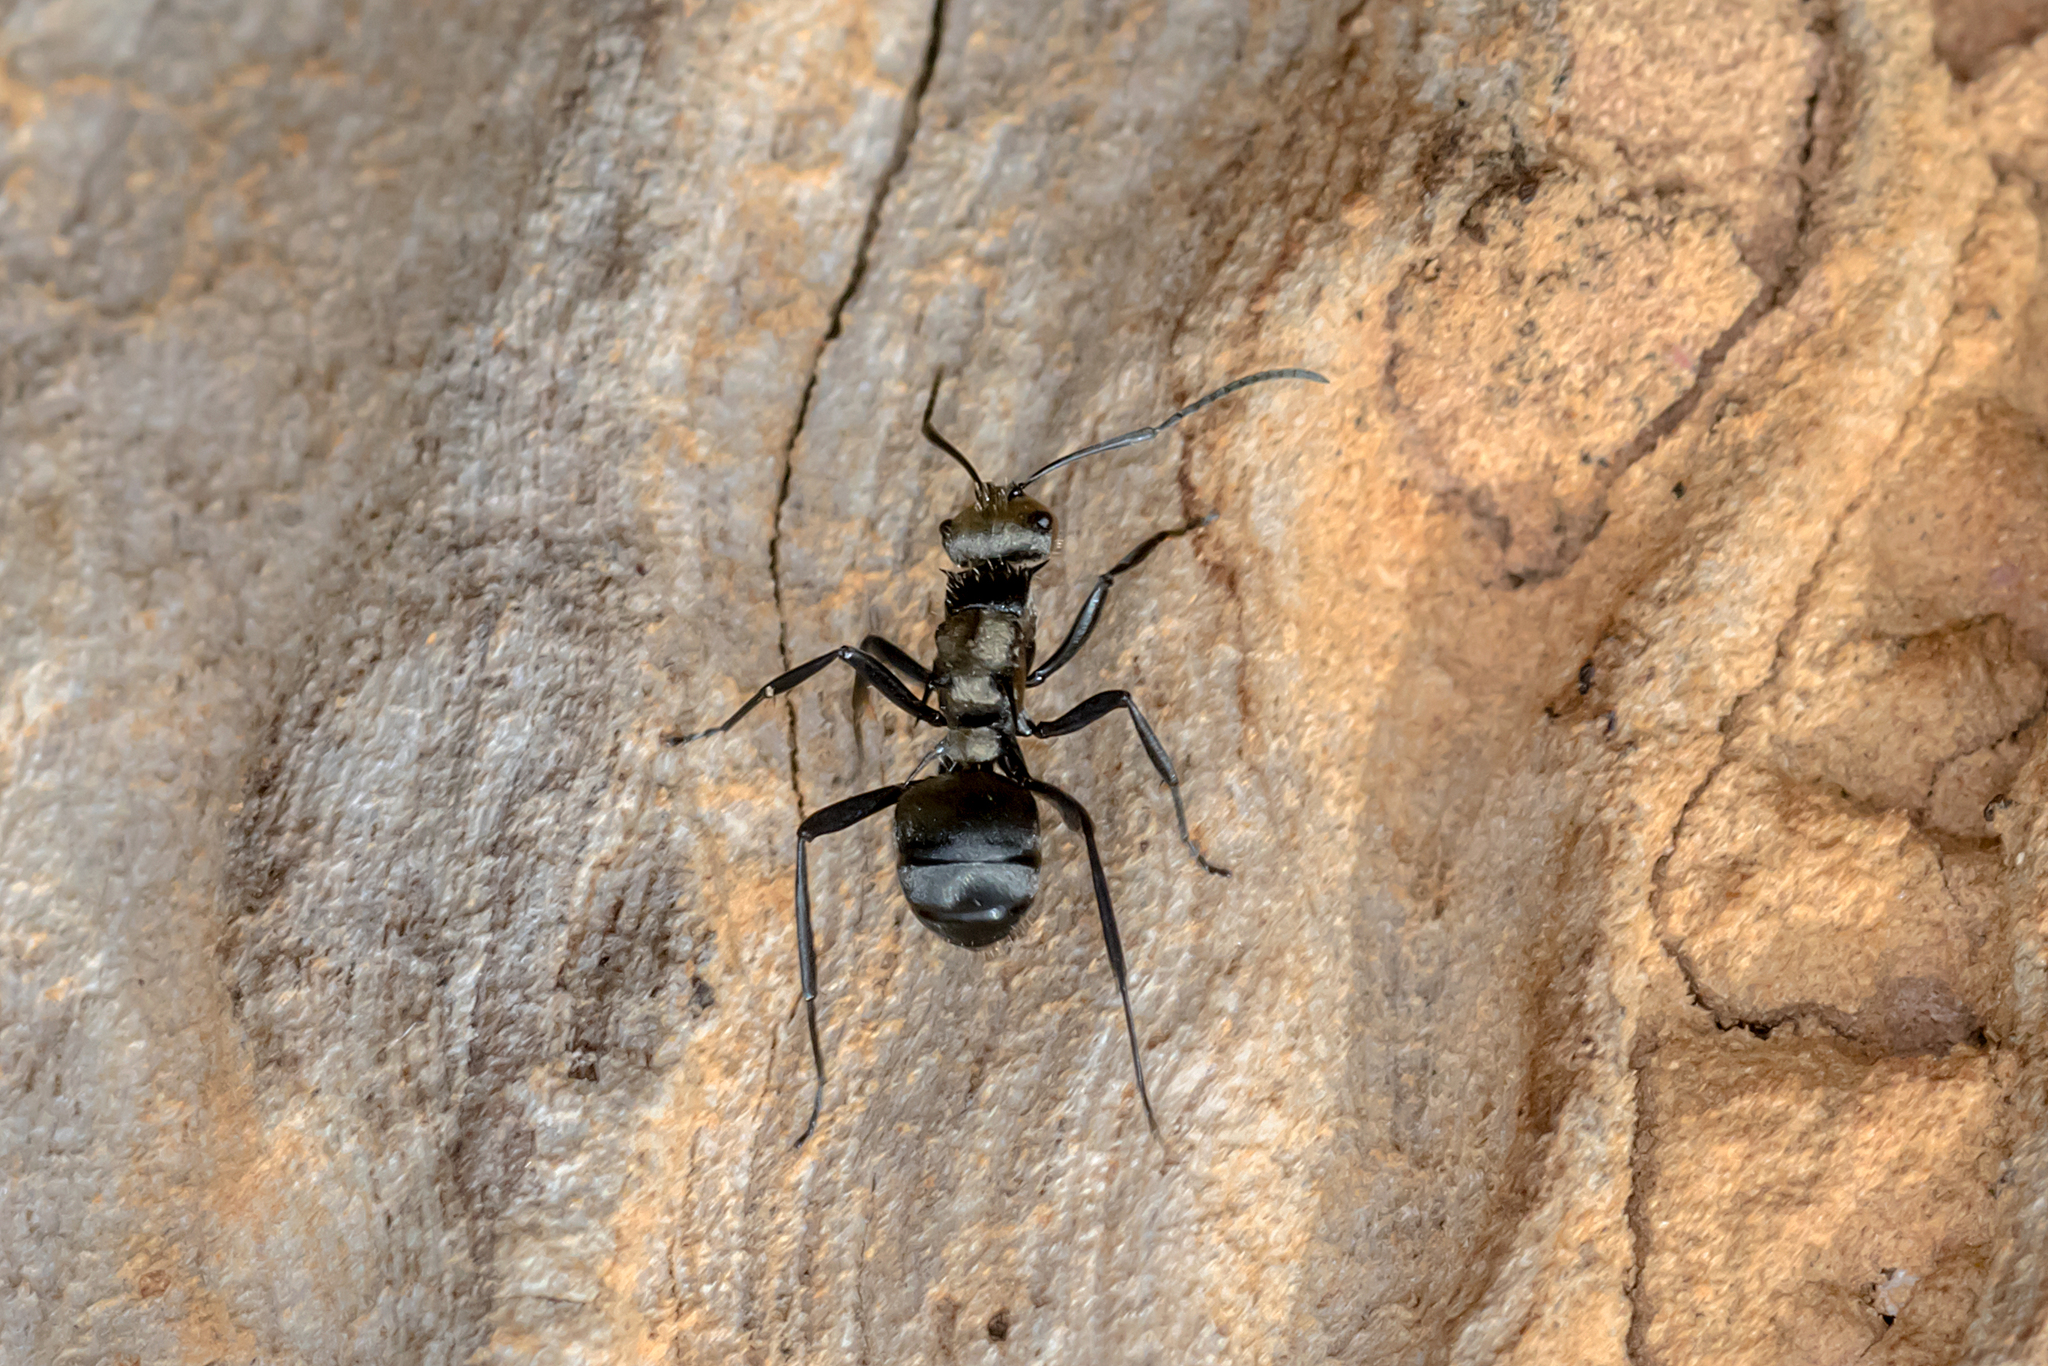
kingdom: Animalia
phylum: Arthropoda
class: Insecta
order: Hymenoptera
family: Formicidae
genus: Polyrhachis
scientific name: Polyrhachis daemeli
